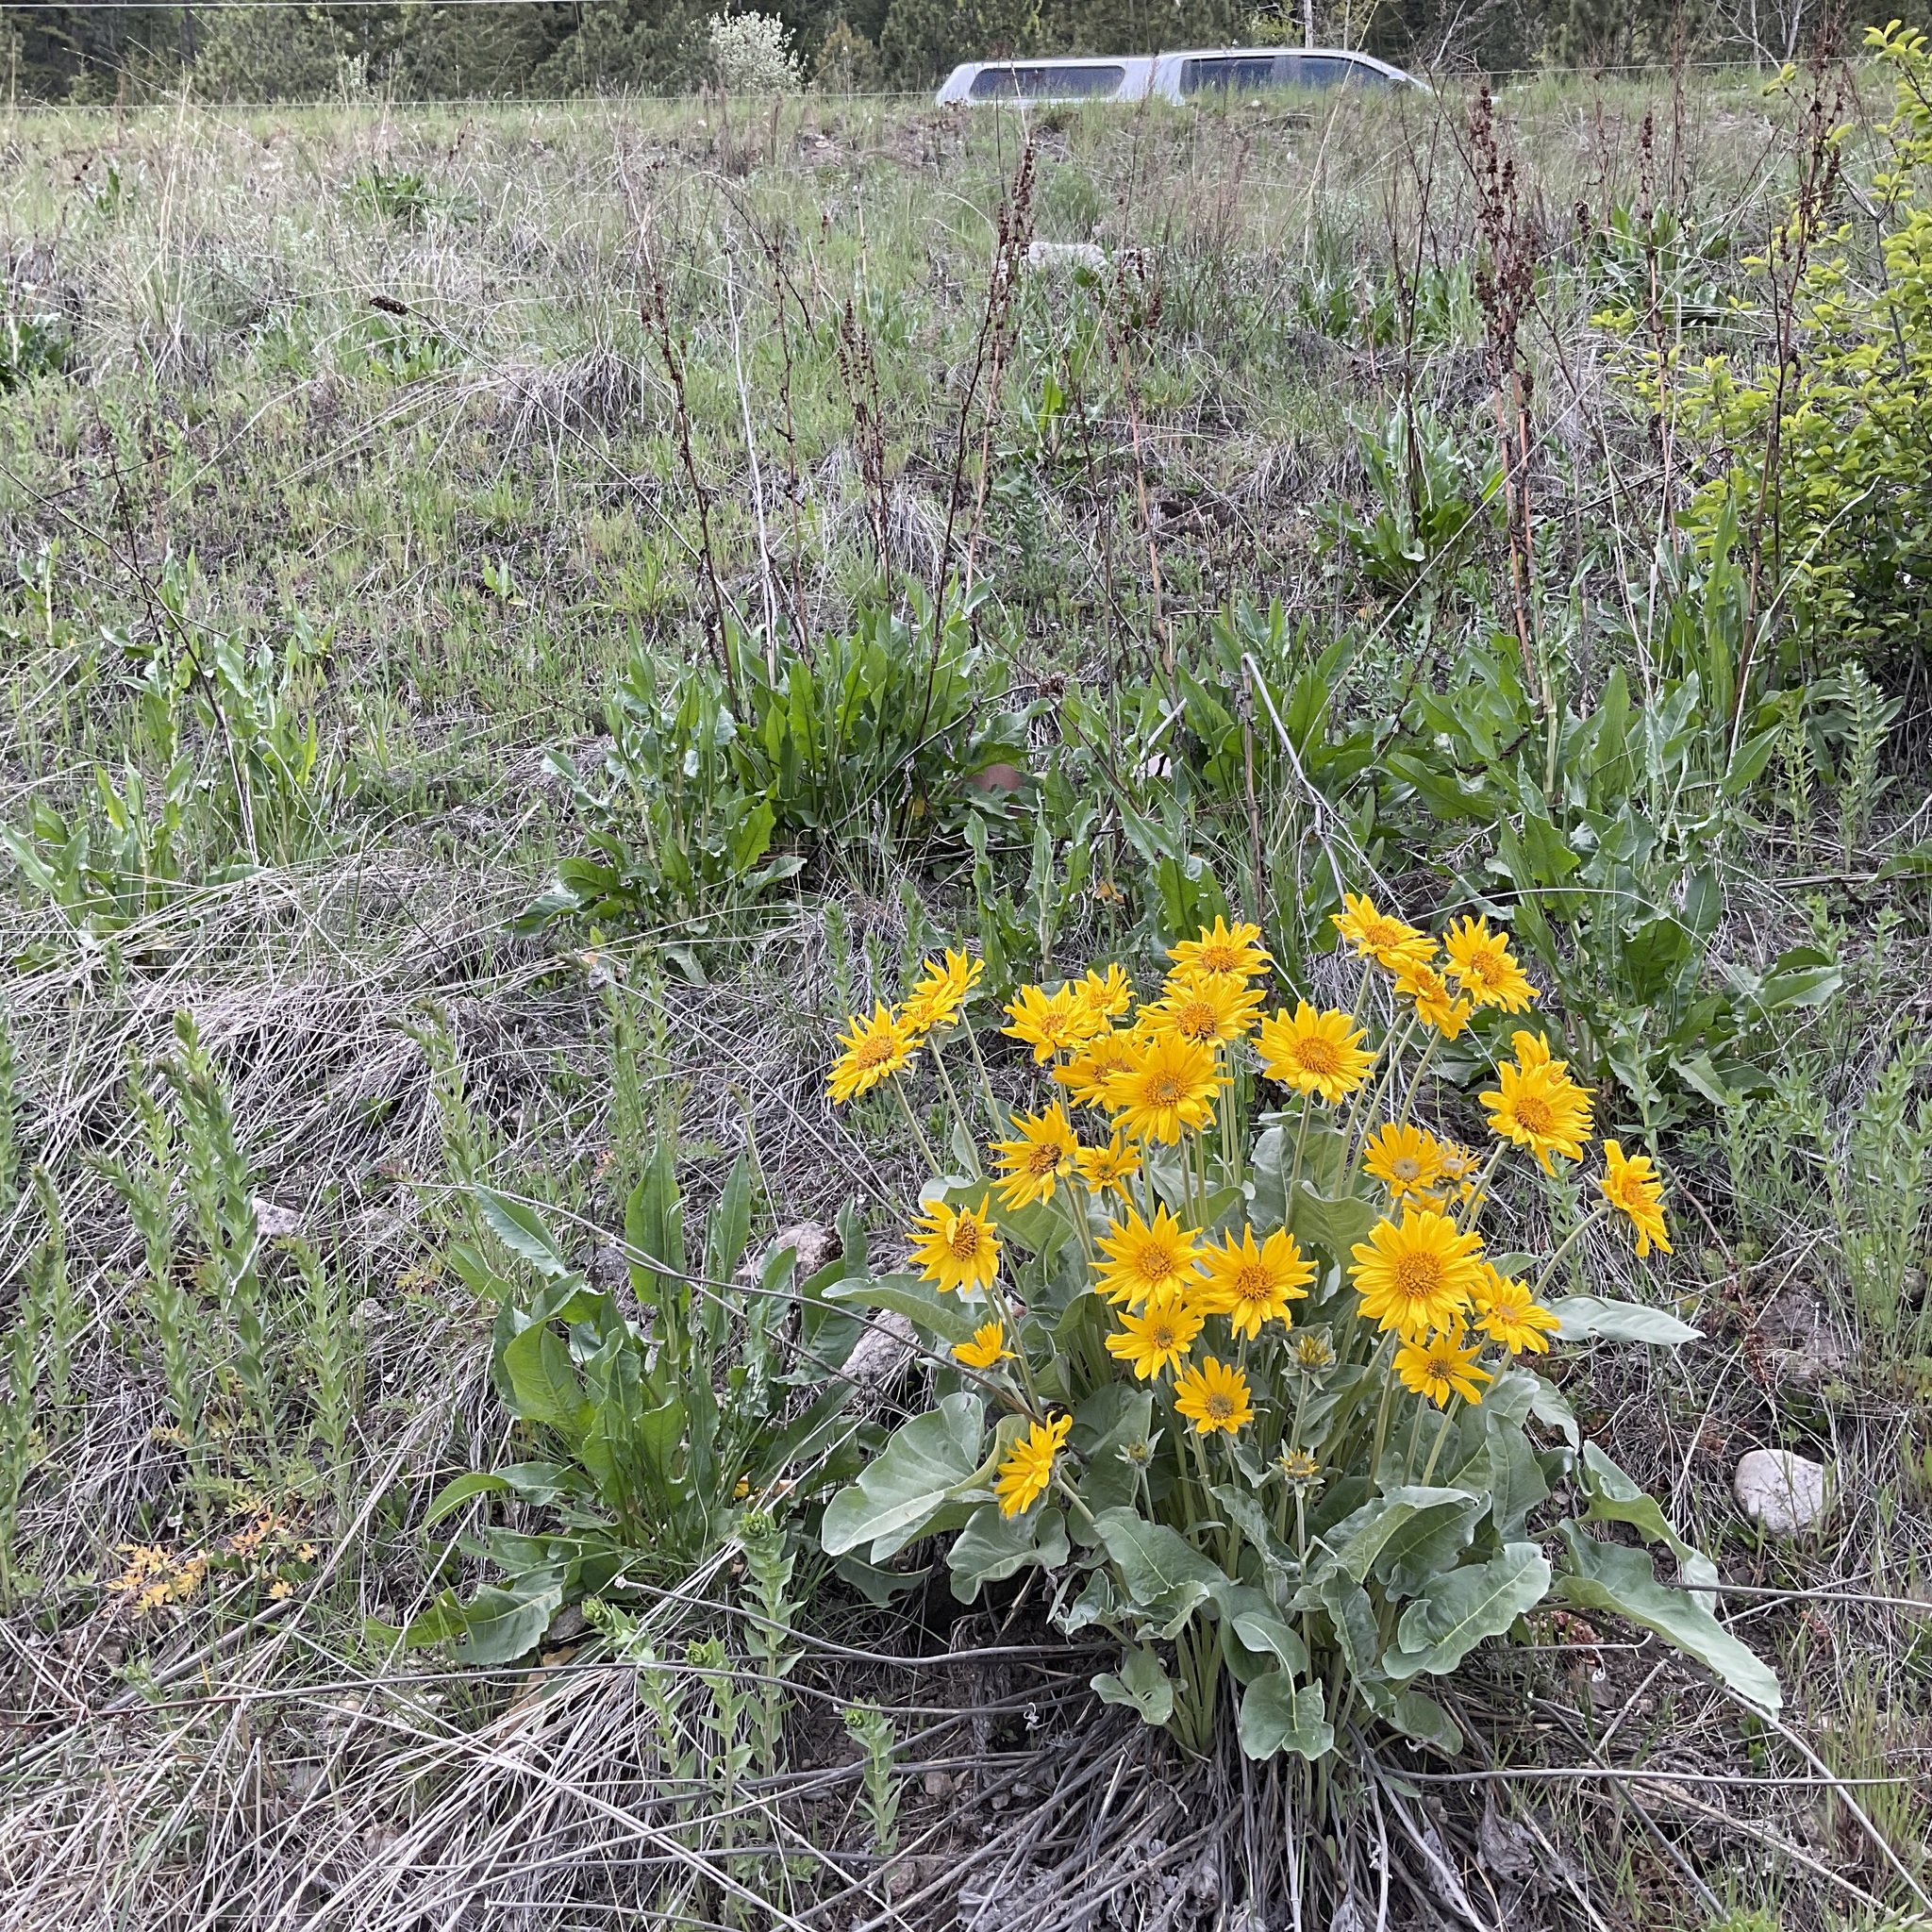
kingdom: Plantae
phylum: Tracheophyta
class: Magnoliopsida
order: Asterales
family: Asteraceae
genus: Wyethia
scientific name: Wyethia sagittata
